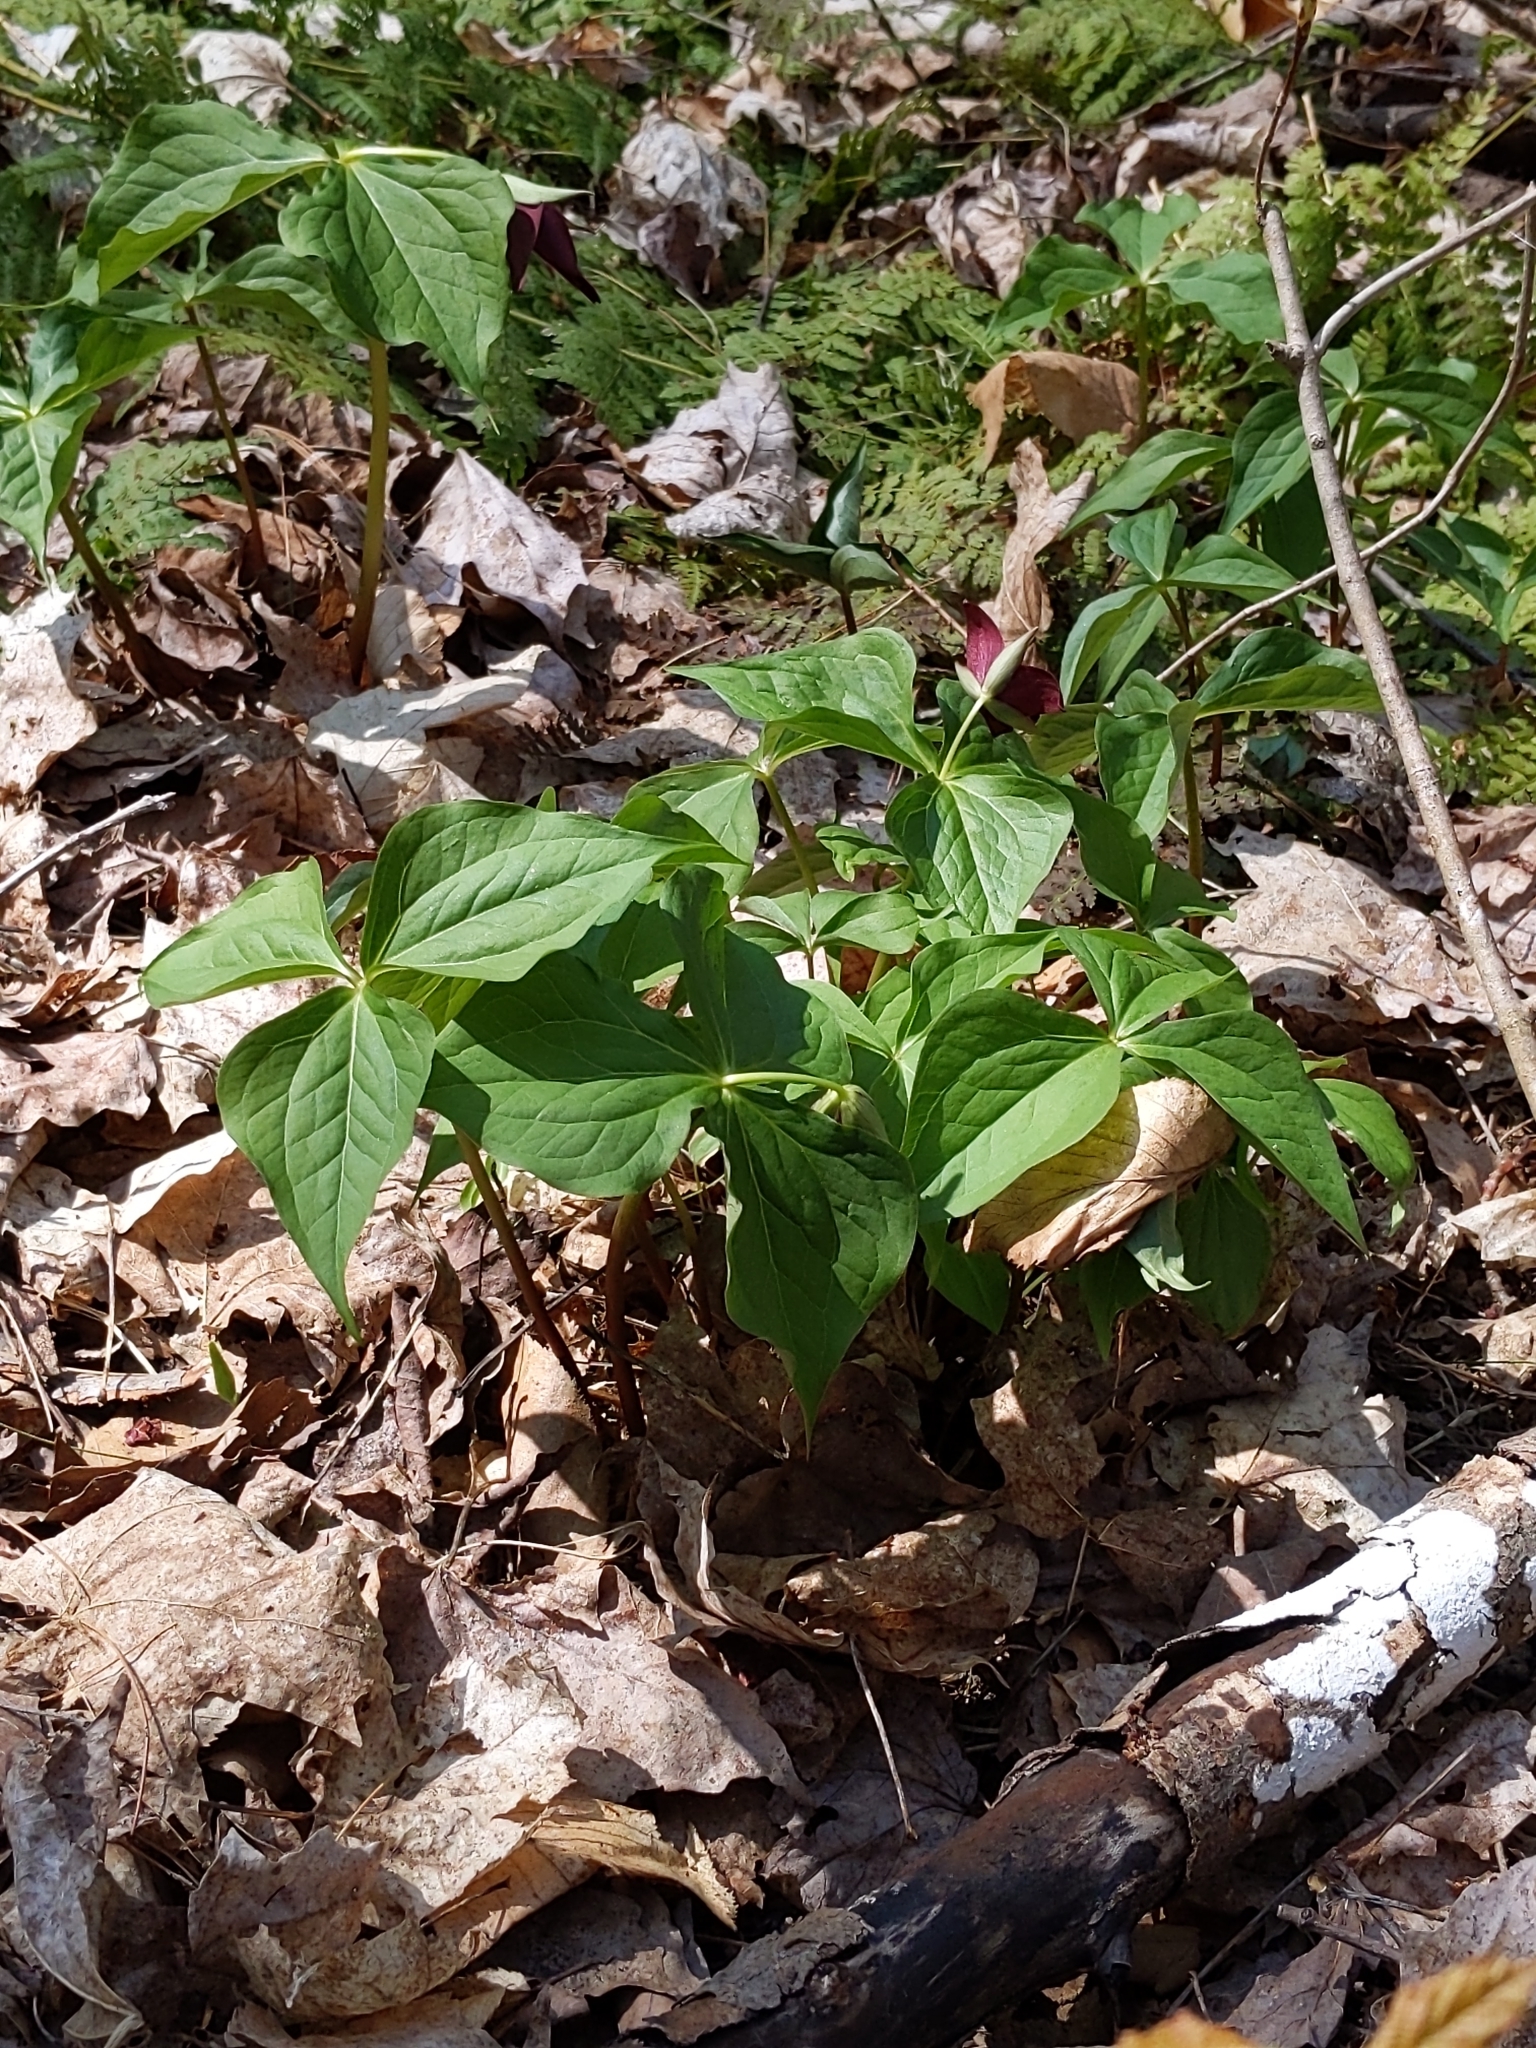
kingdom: Plantae
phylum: Tracheophyta
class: Liliopsida
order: Liliales
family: Melanthiaceae
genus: Trillium
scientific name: Trillium erectum
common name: Purple trillium
